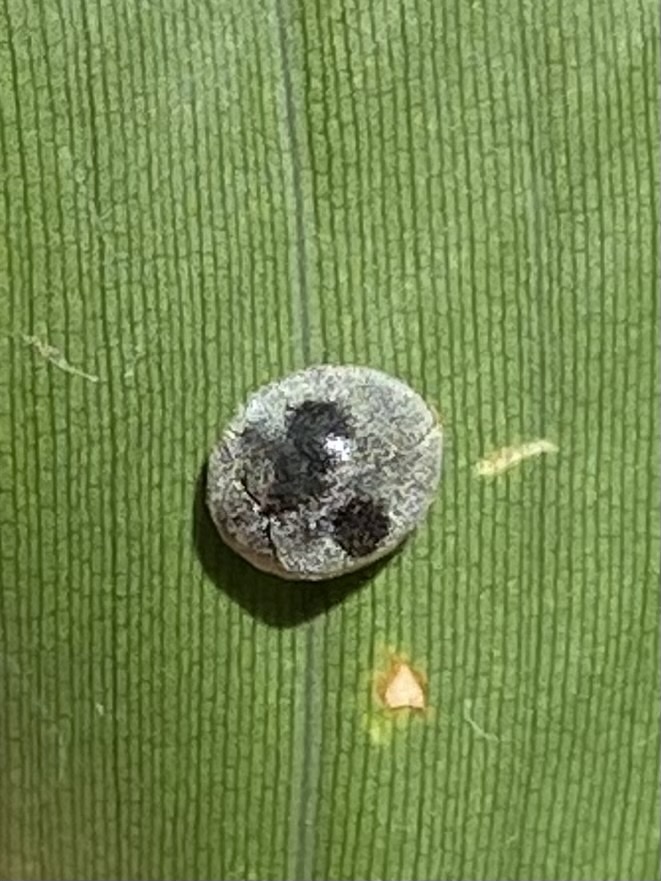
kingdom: Animalia
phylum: Arthropoda
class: Insecta
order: Coleoptera
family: Coccinellidae
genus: Azya
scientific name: Azya orbigera
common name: Ladybird beetle
